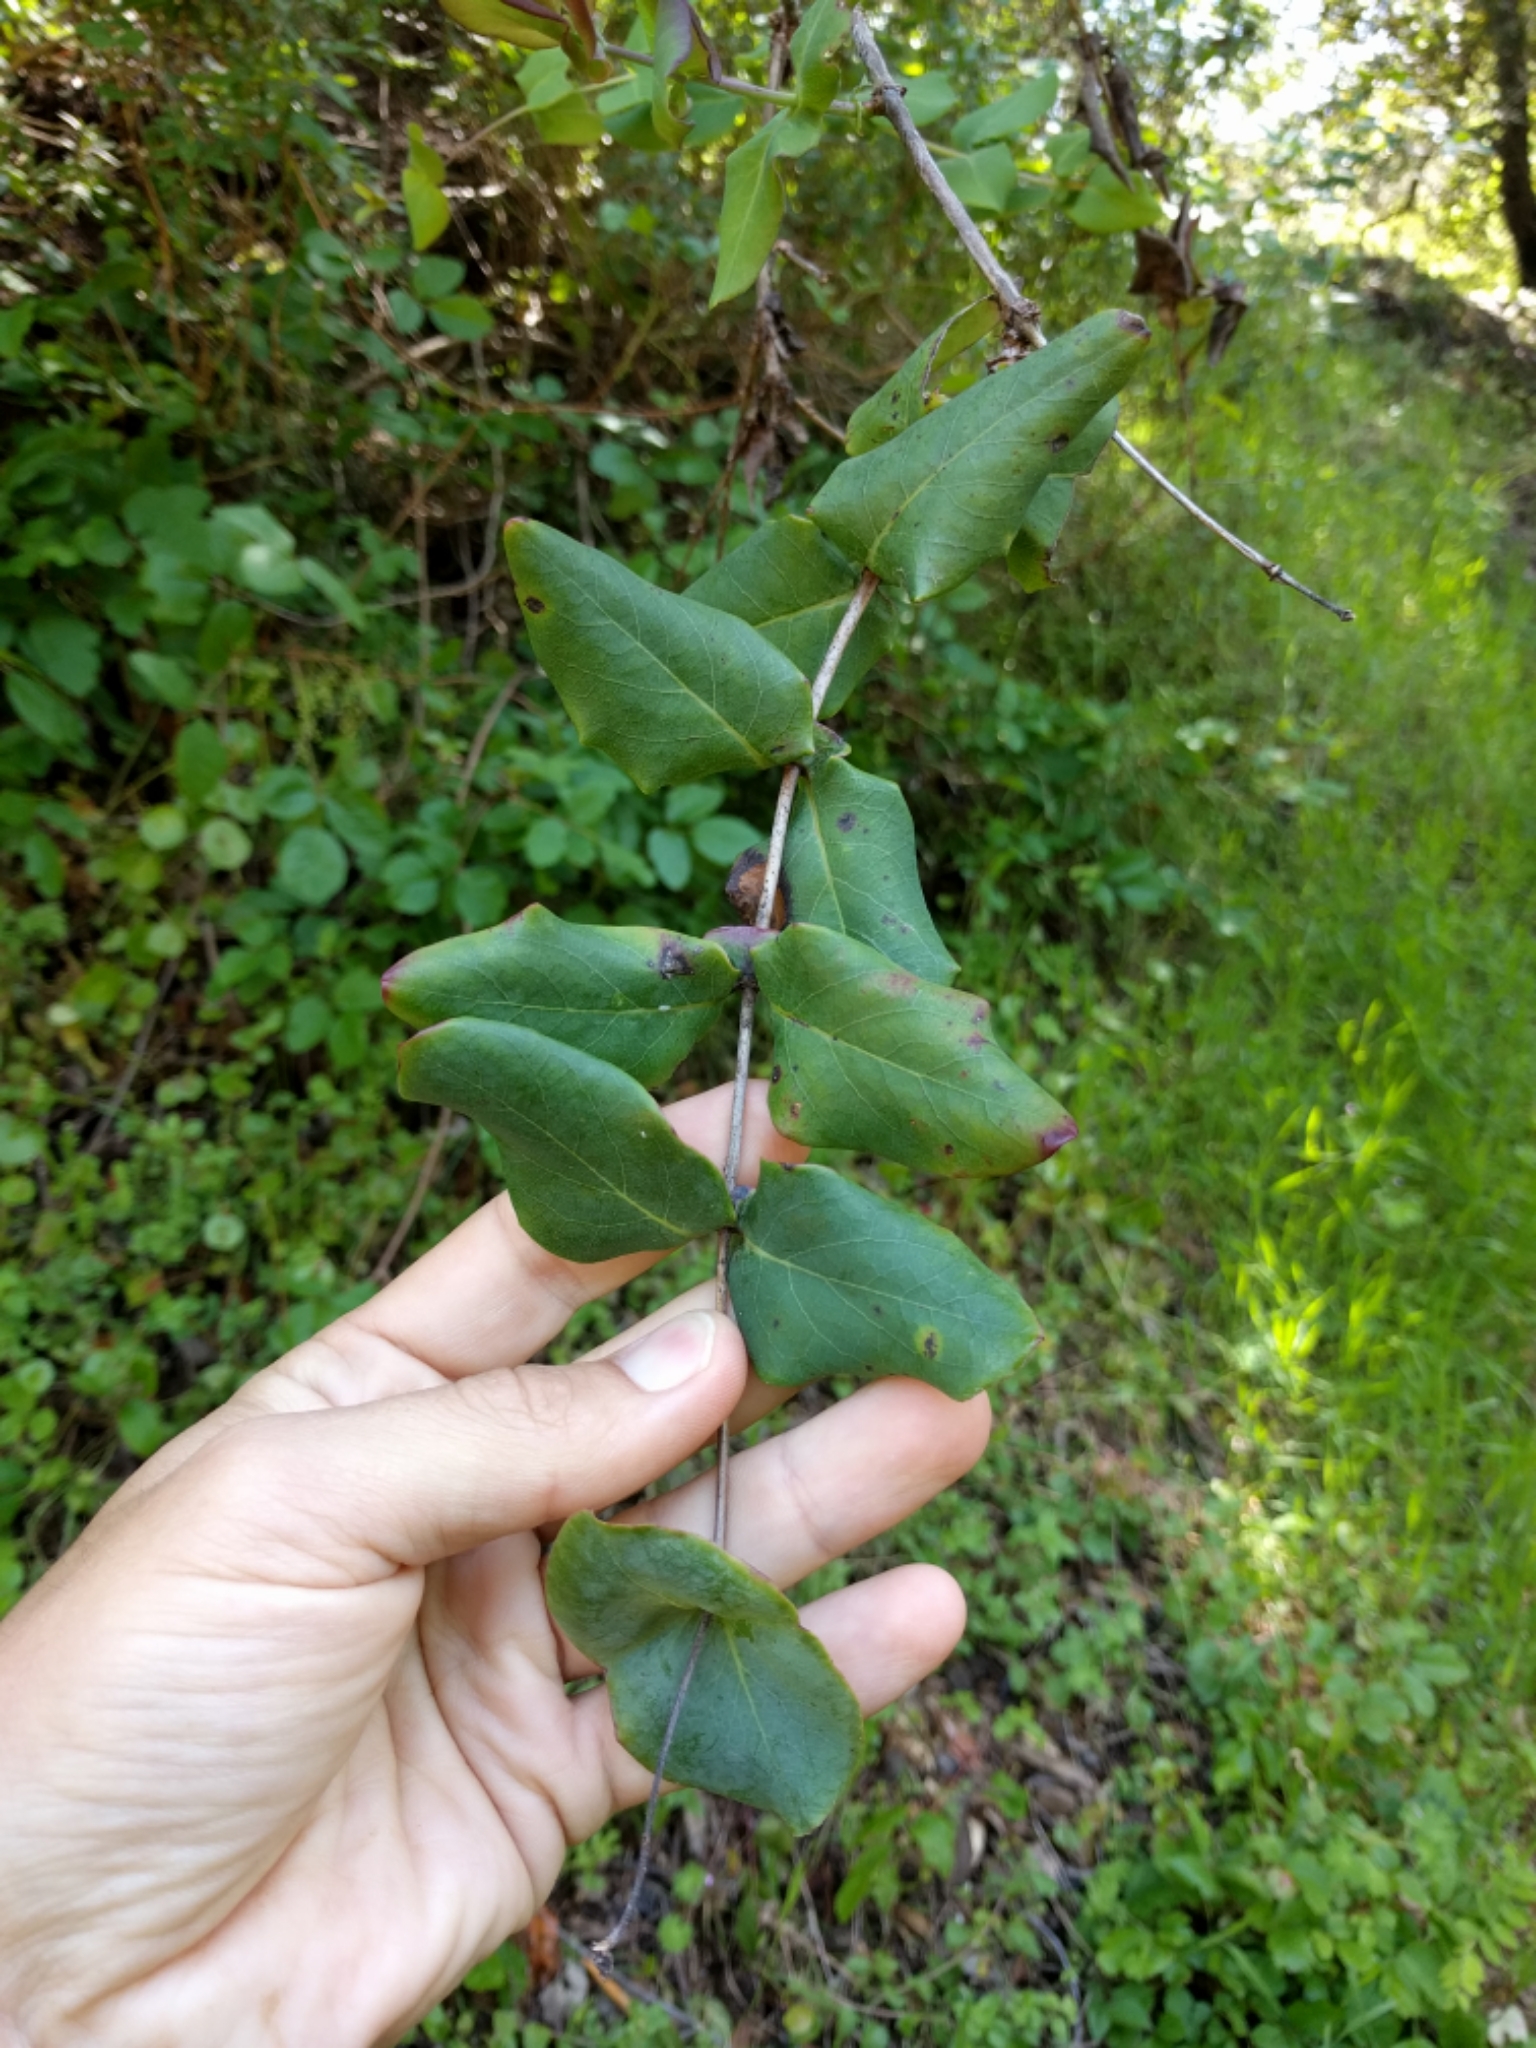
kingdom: Plantae
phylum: Tracheophyta
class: Magnoliopsida
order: Dipsacales
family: Caprifoliaceae
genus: Lonicera
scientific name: Lonicera hispidula
